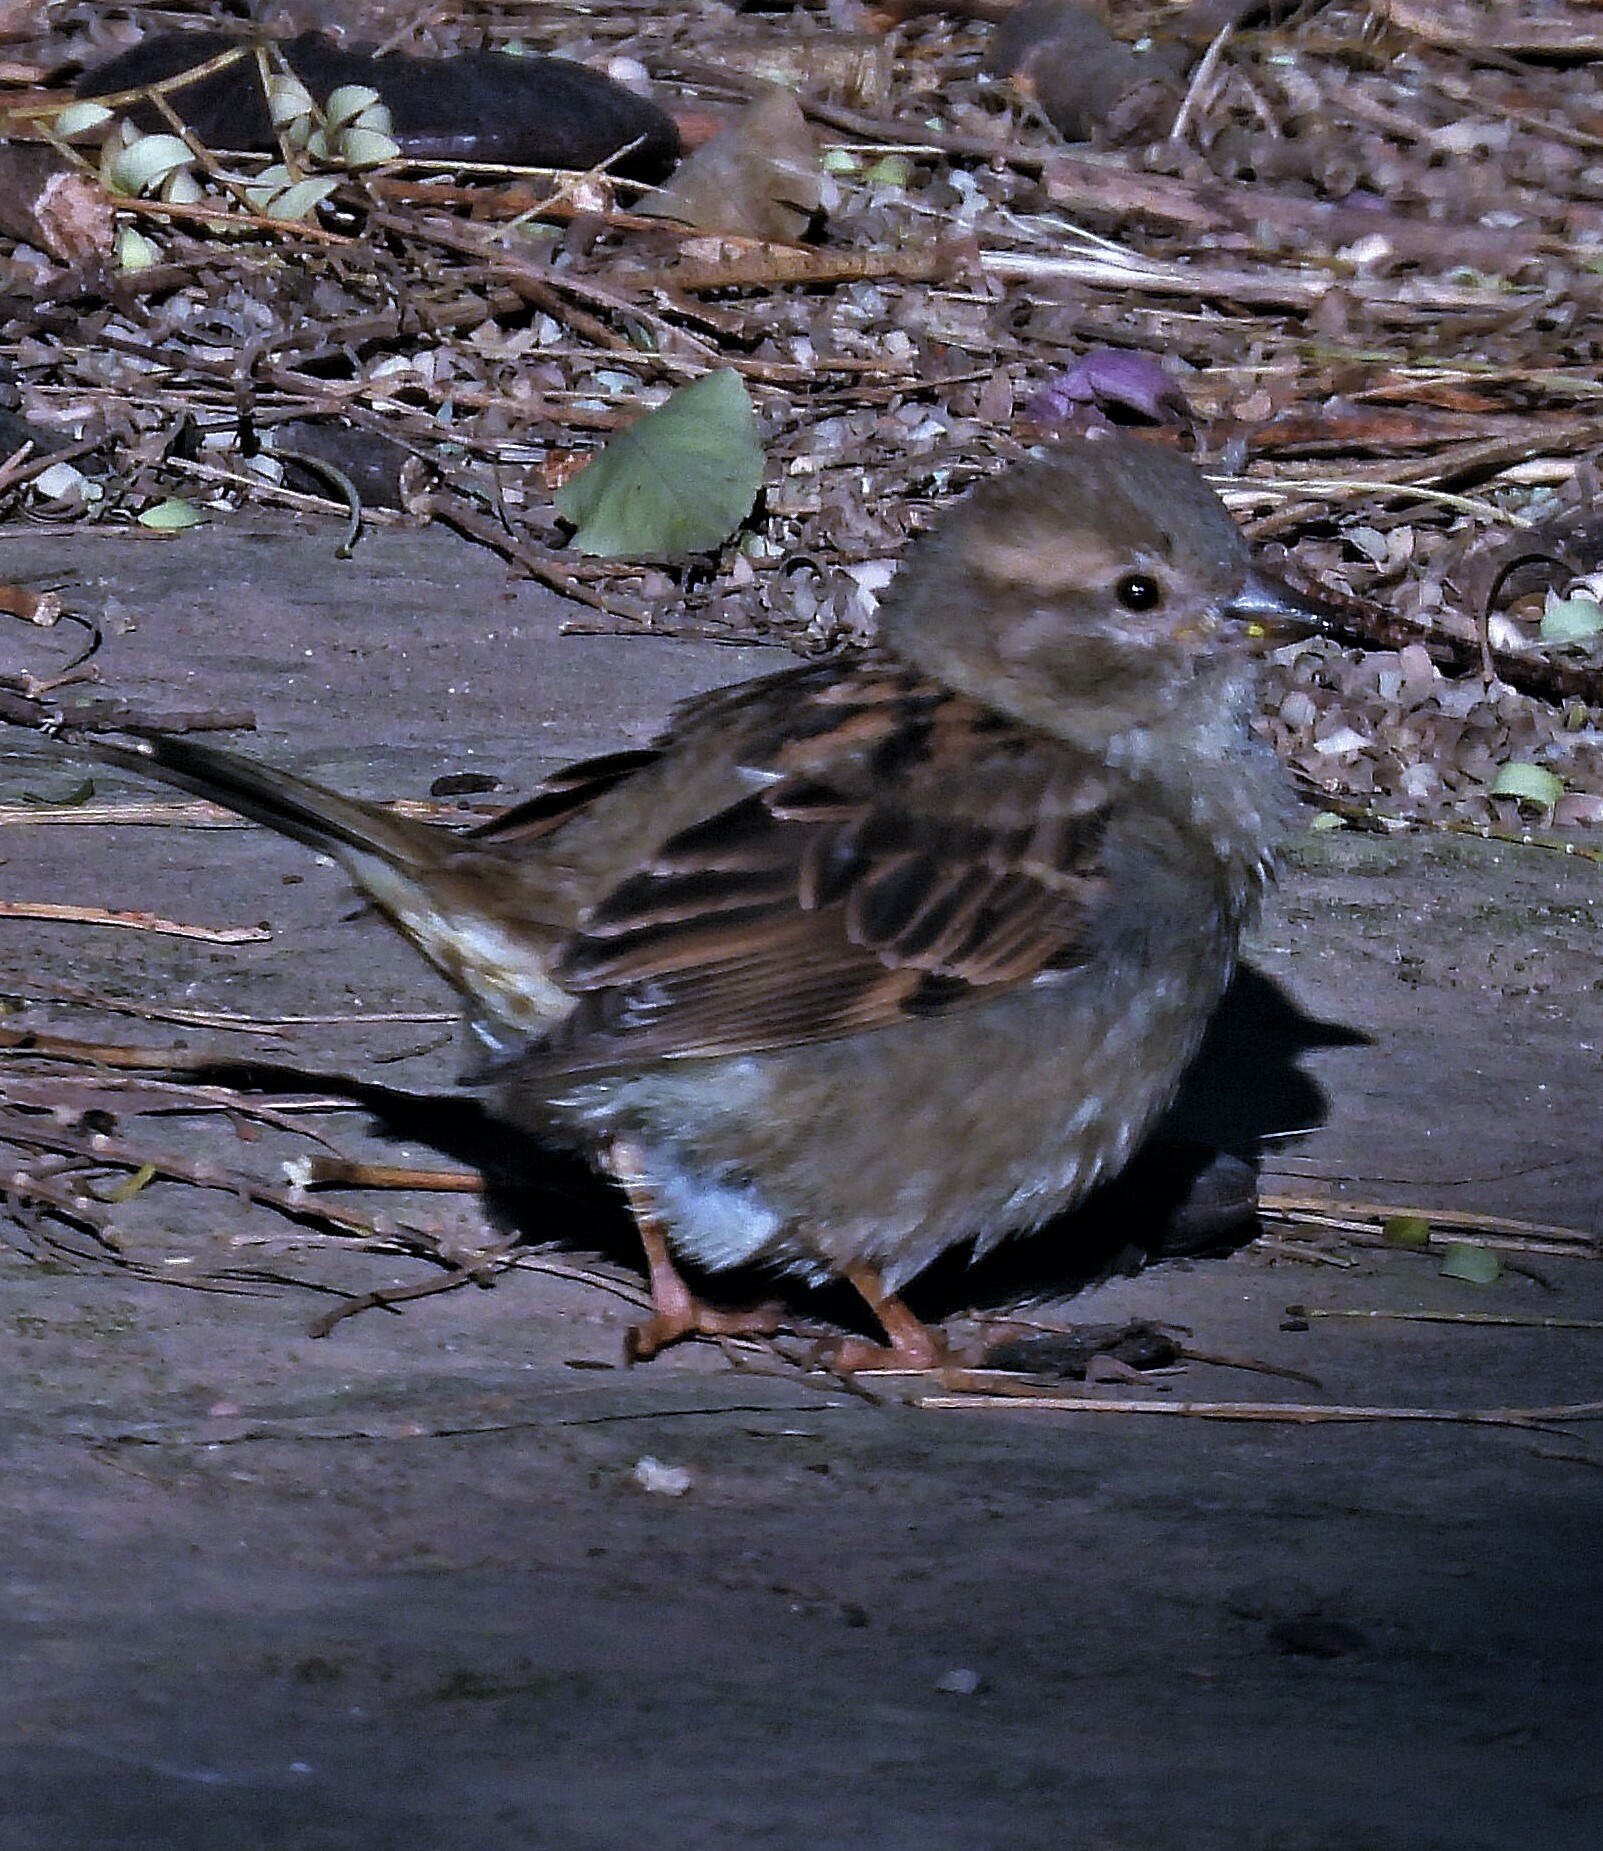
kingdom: Animalia
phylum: Chordata
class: Aves
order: Passeriformes
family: Passeridae
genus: Passer
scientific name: Passer domesticus
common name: House sparrow
